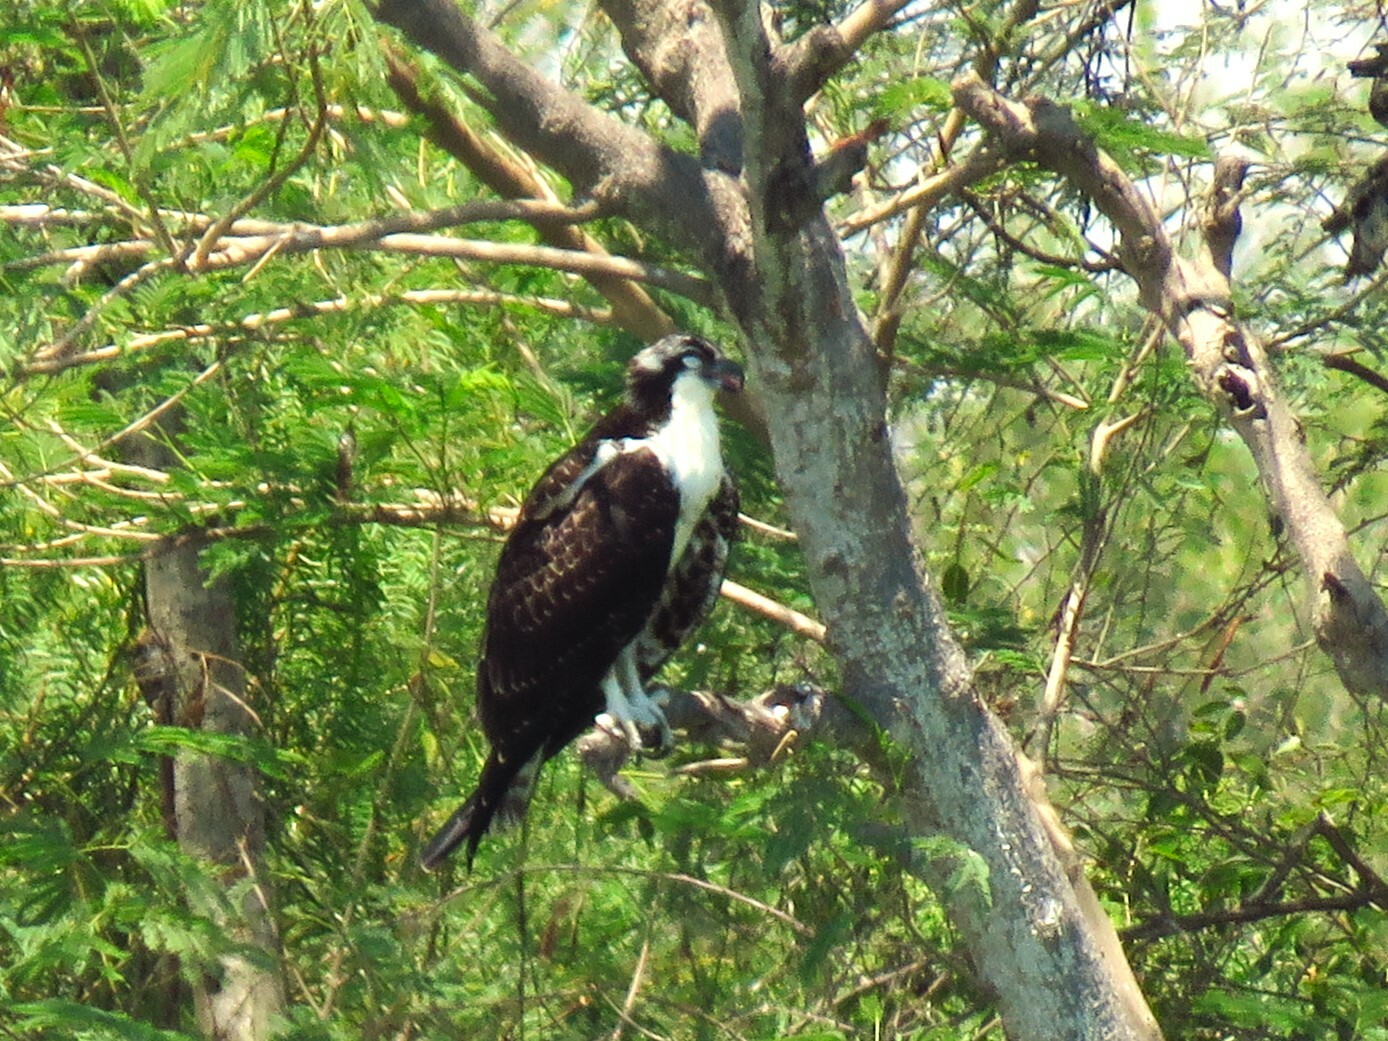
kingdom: Animalia
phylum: Chordata
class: Aves
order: Accipitriformes
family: Pandionidae
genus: Pandion
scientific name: Pandion haliaetus
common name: Osprey
